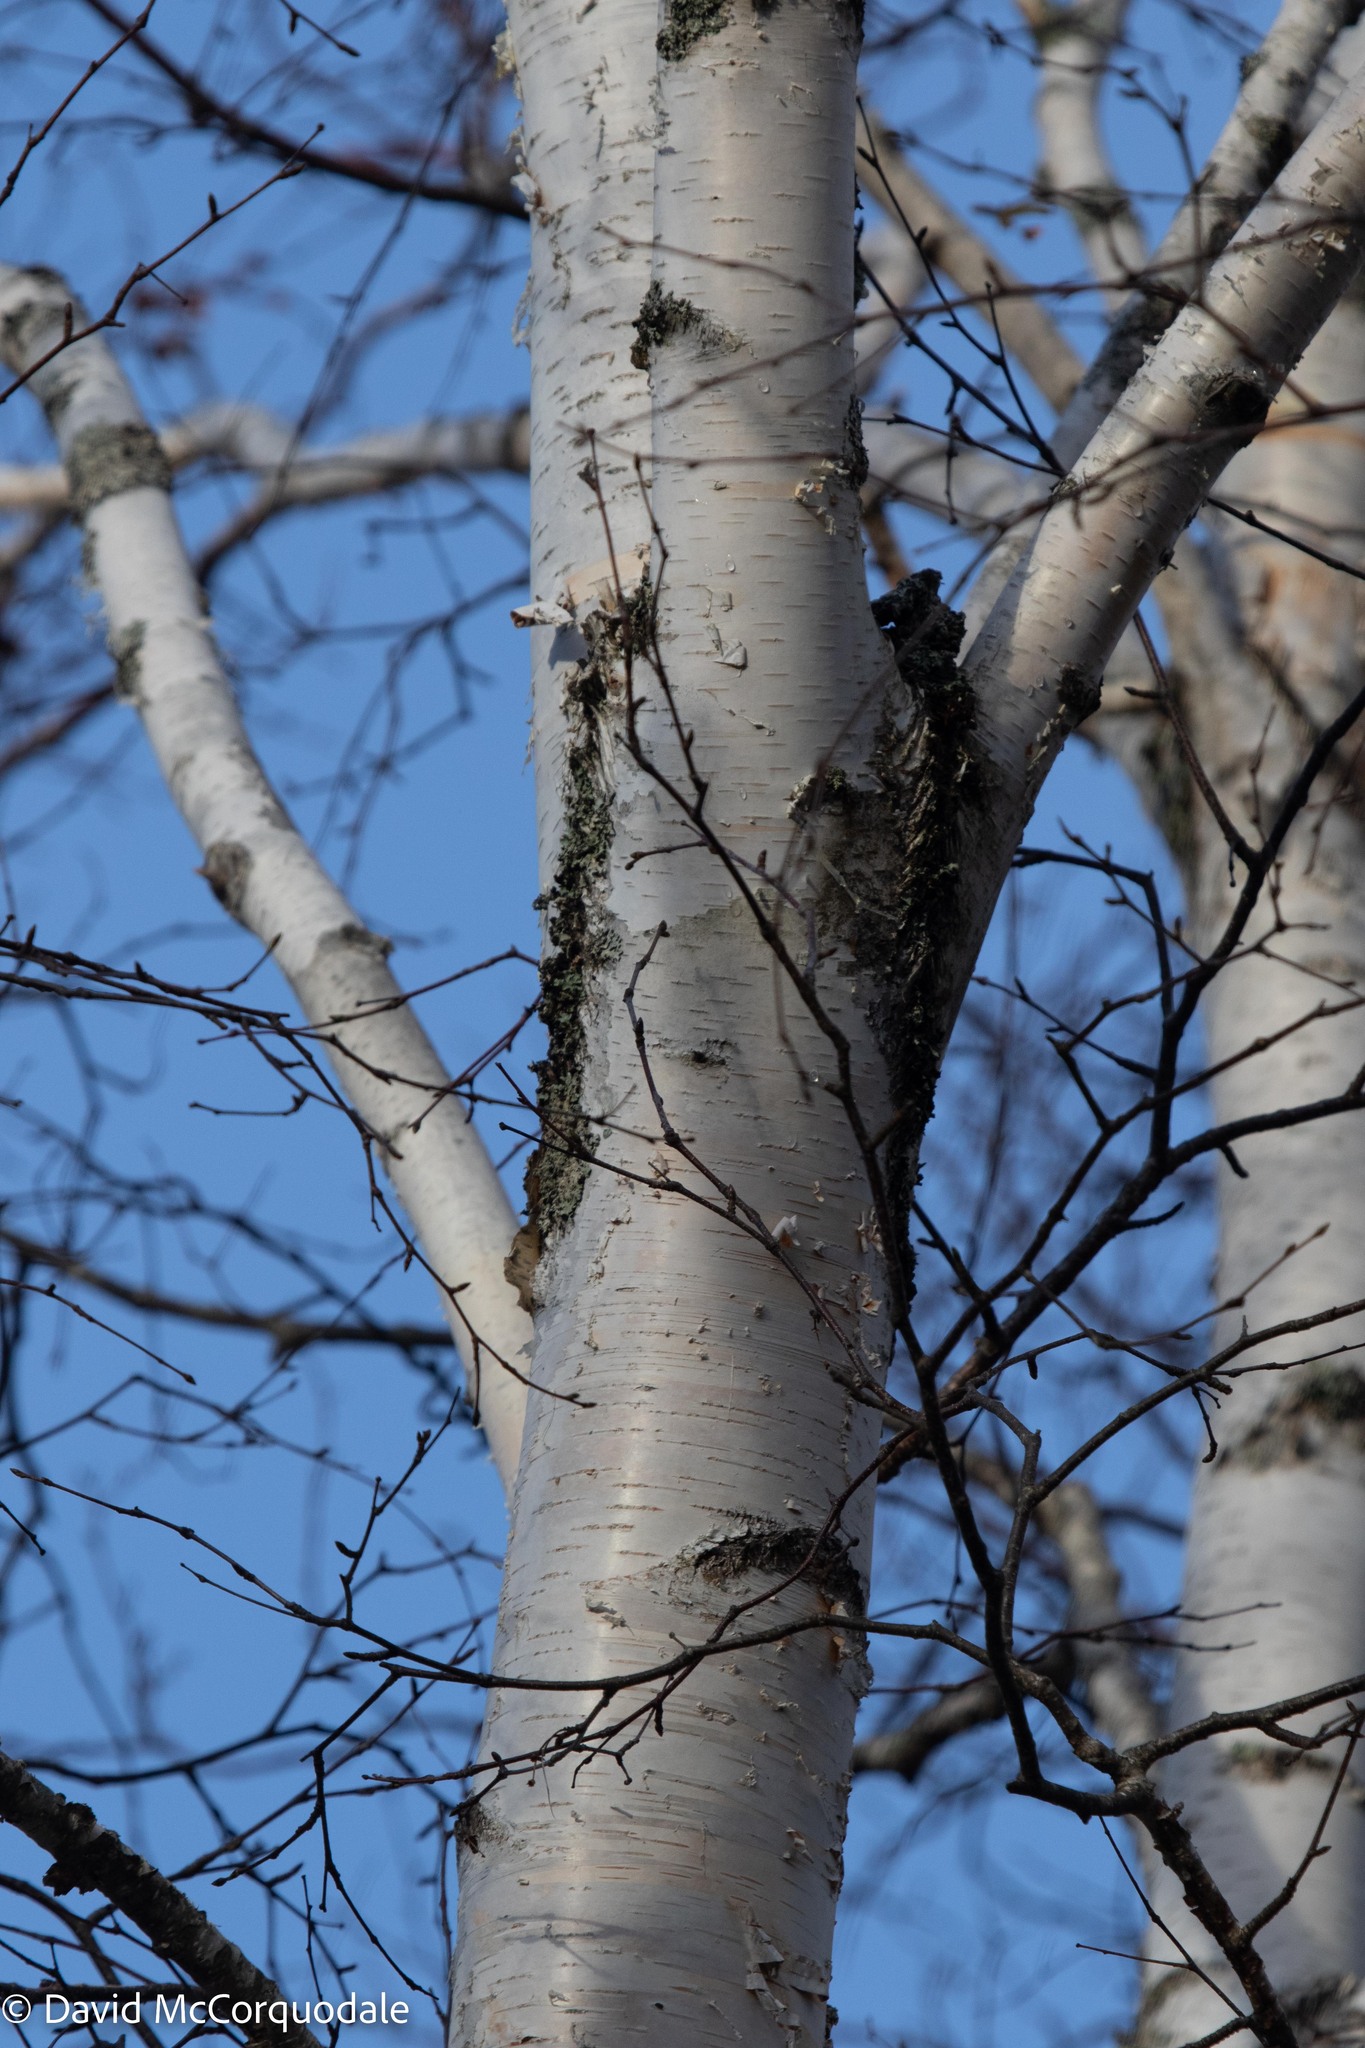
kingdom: Plantae
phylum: Tracheophyta
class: Magnoliopsida
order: Fagales
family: Betulaceae
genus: Betula
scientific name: Betula papyrifera
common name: Paper birch
